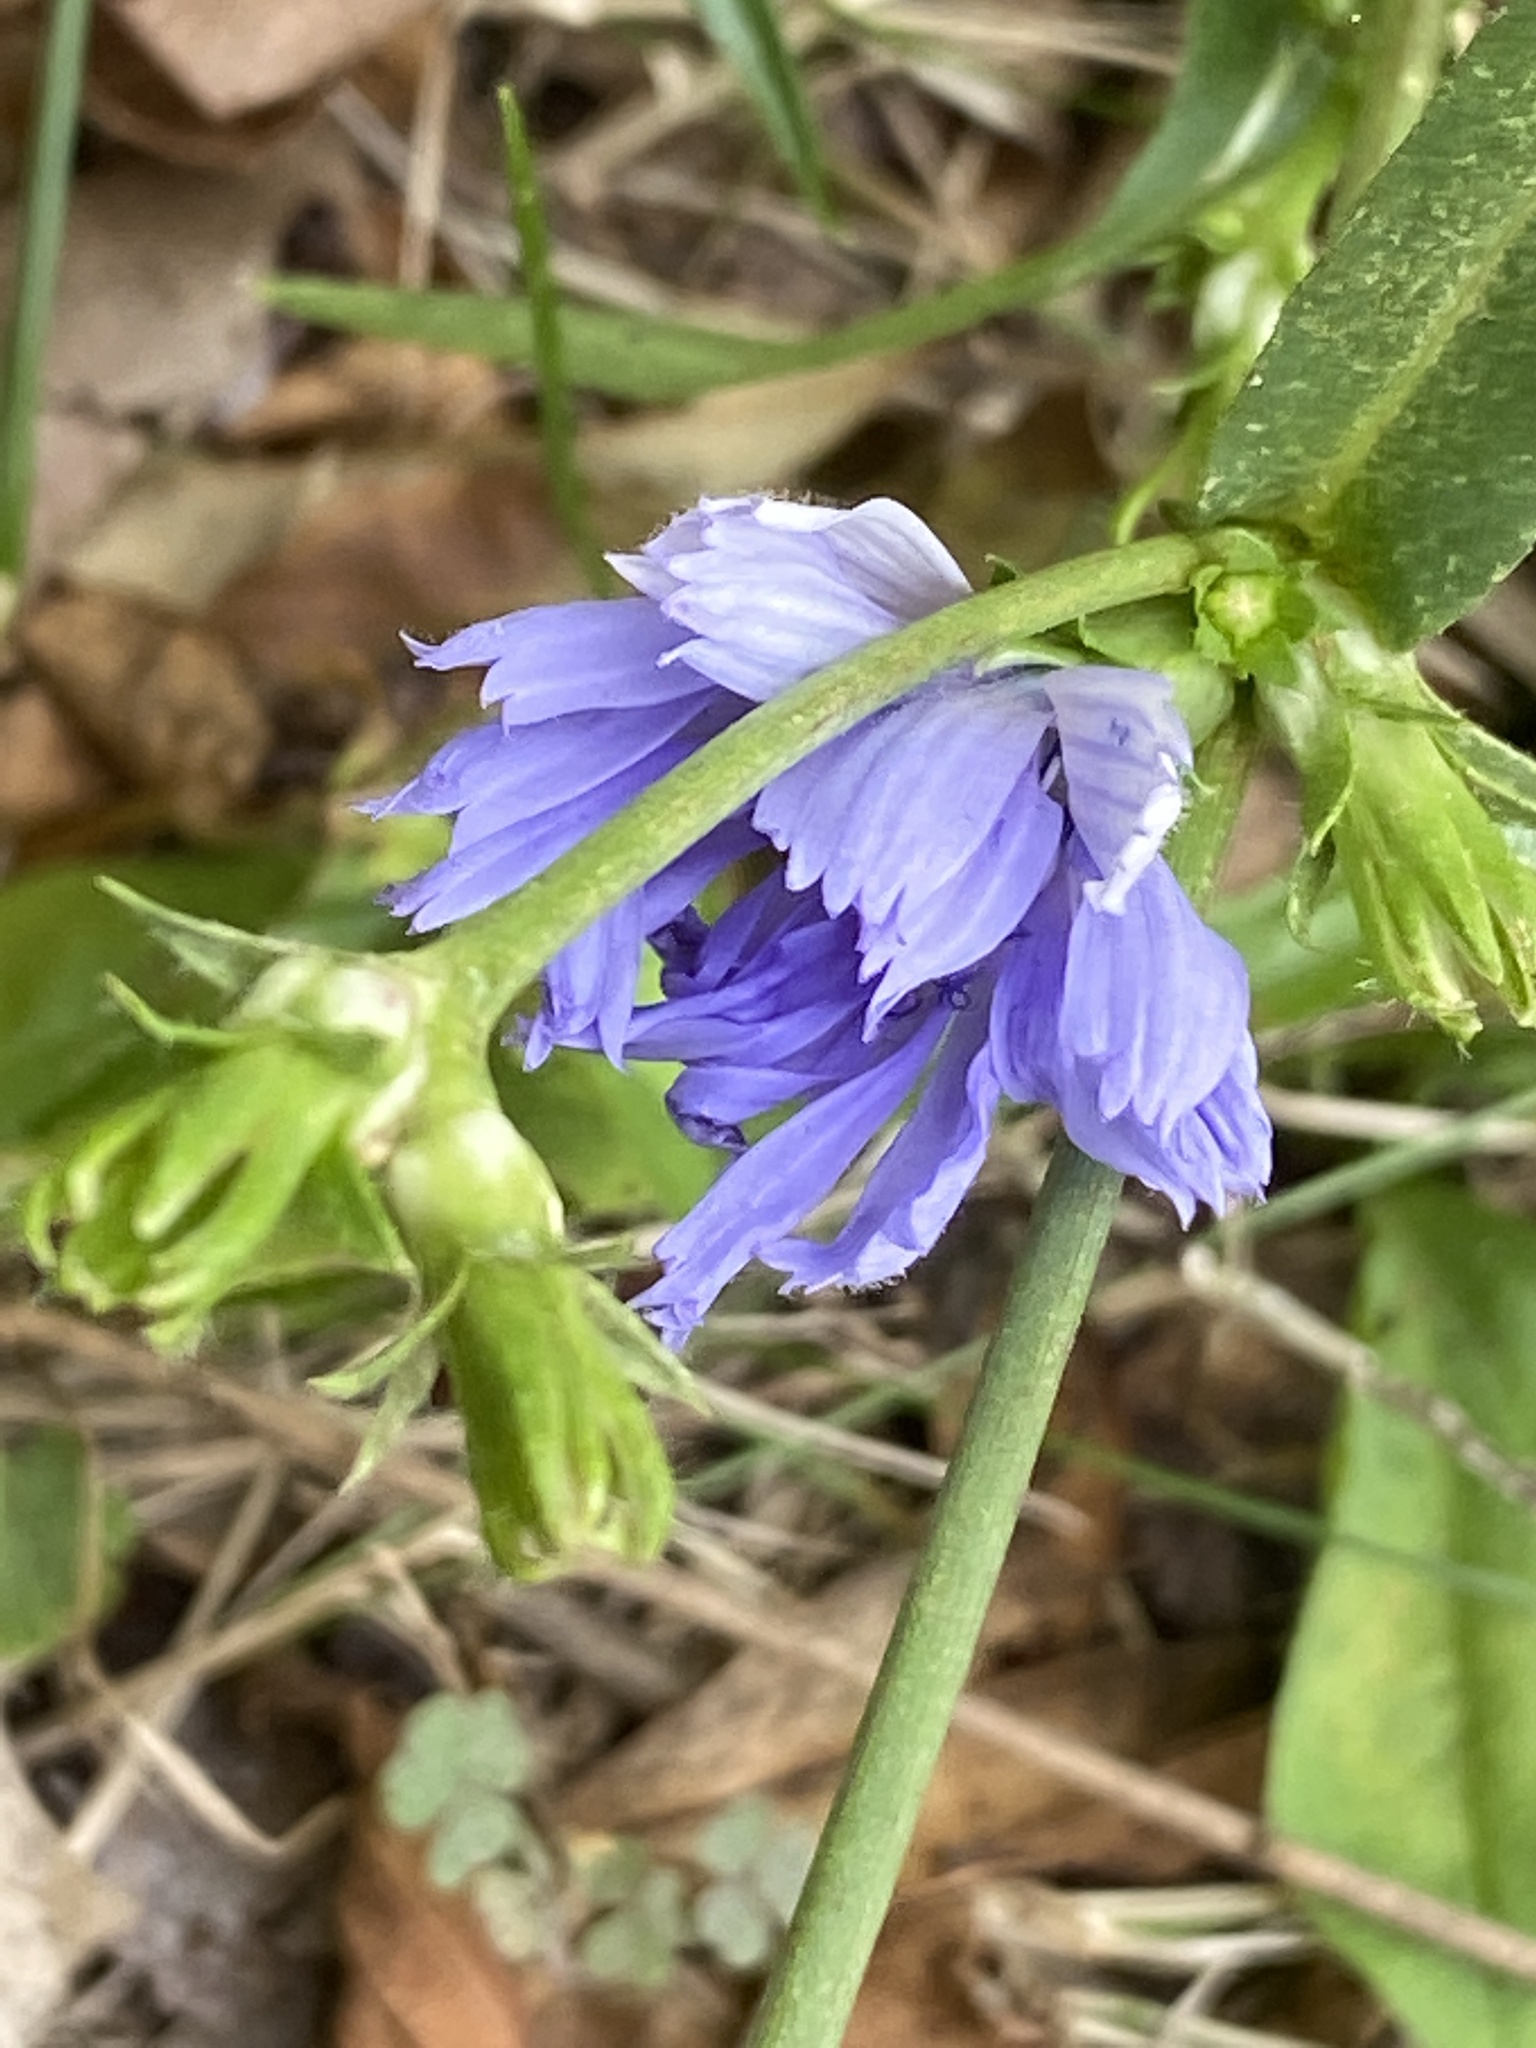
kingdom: Plantae
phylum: Tracheophyta
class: Magnoliopsida
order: Asterales
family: Asteraceae
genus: Cichorium
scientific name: Cichorium intybus
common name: Chicory
